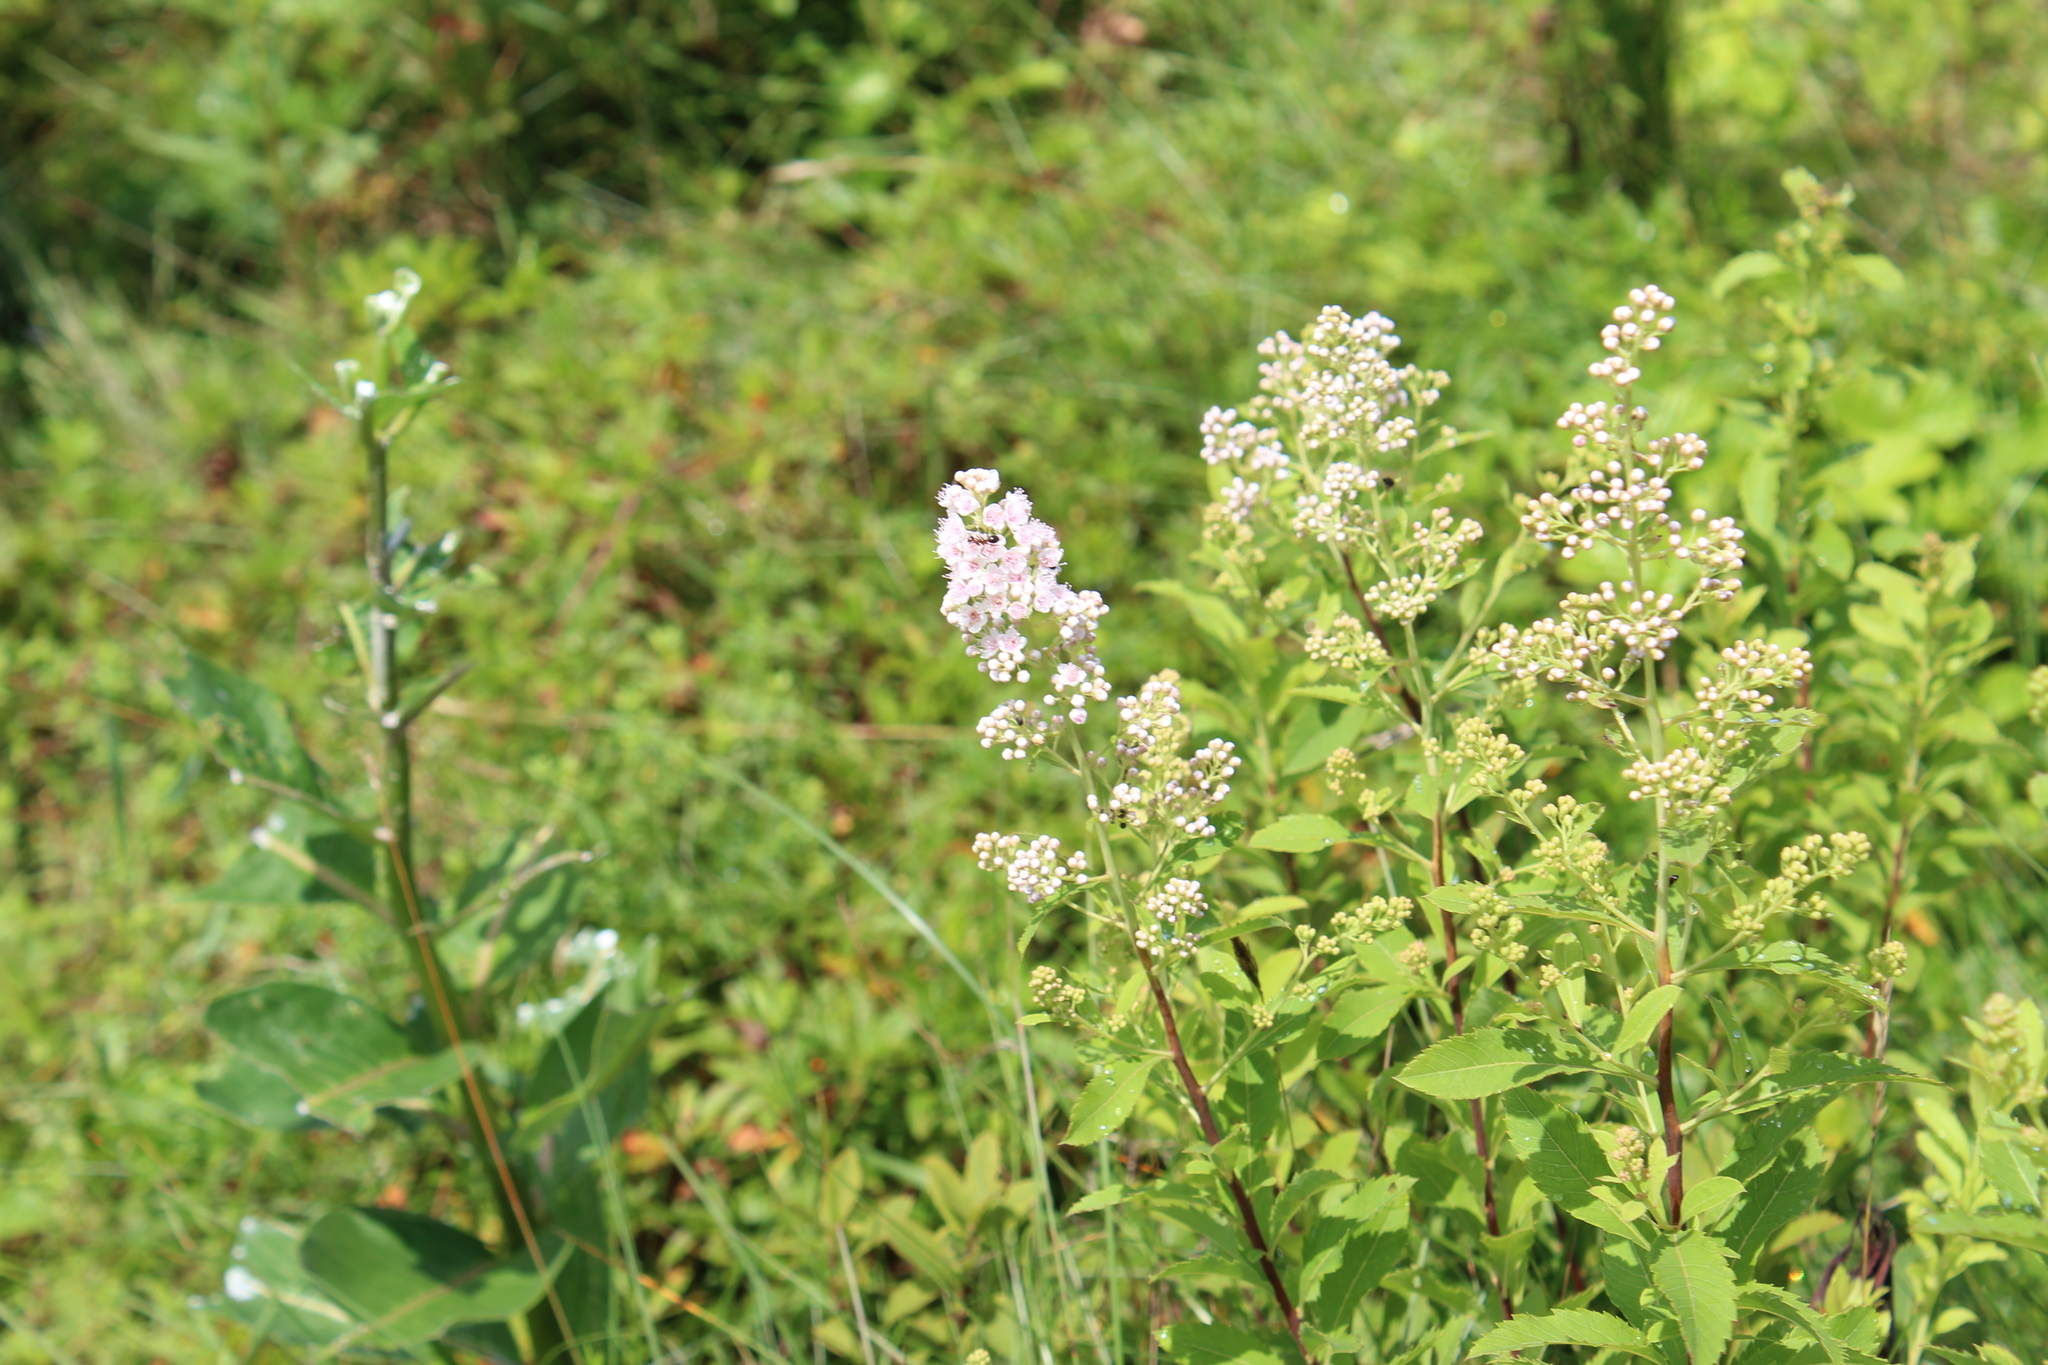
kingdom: Plantae
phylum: Tracheophyta
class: Magnoliopsida
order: Rosales
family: Rosaceae
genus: Spiraea
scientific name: Spiraea alba
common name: Pale bridewort
